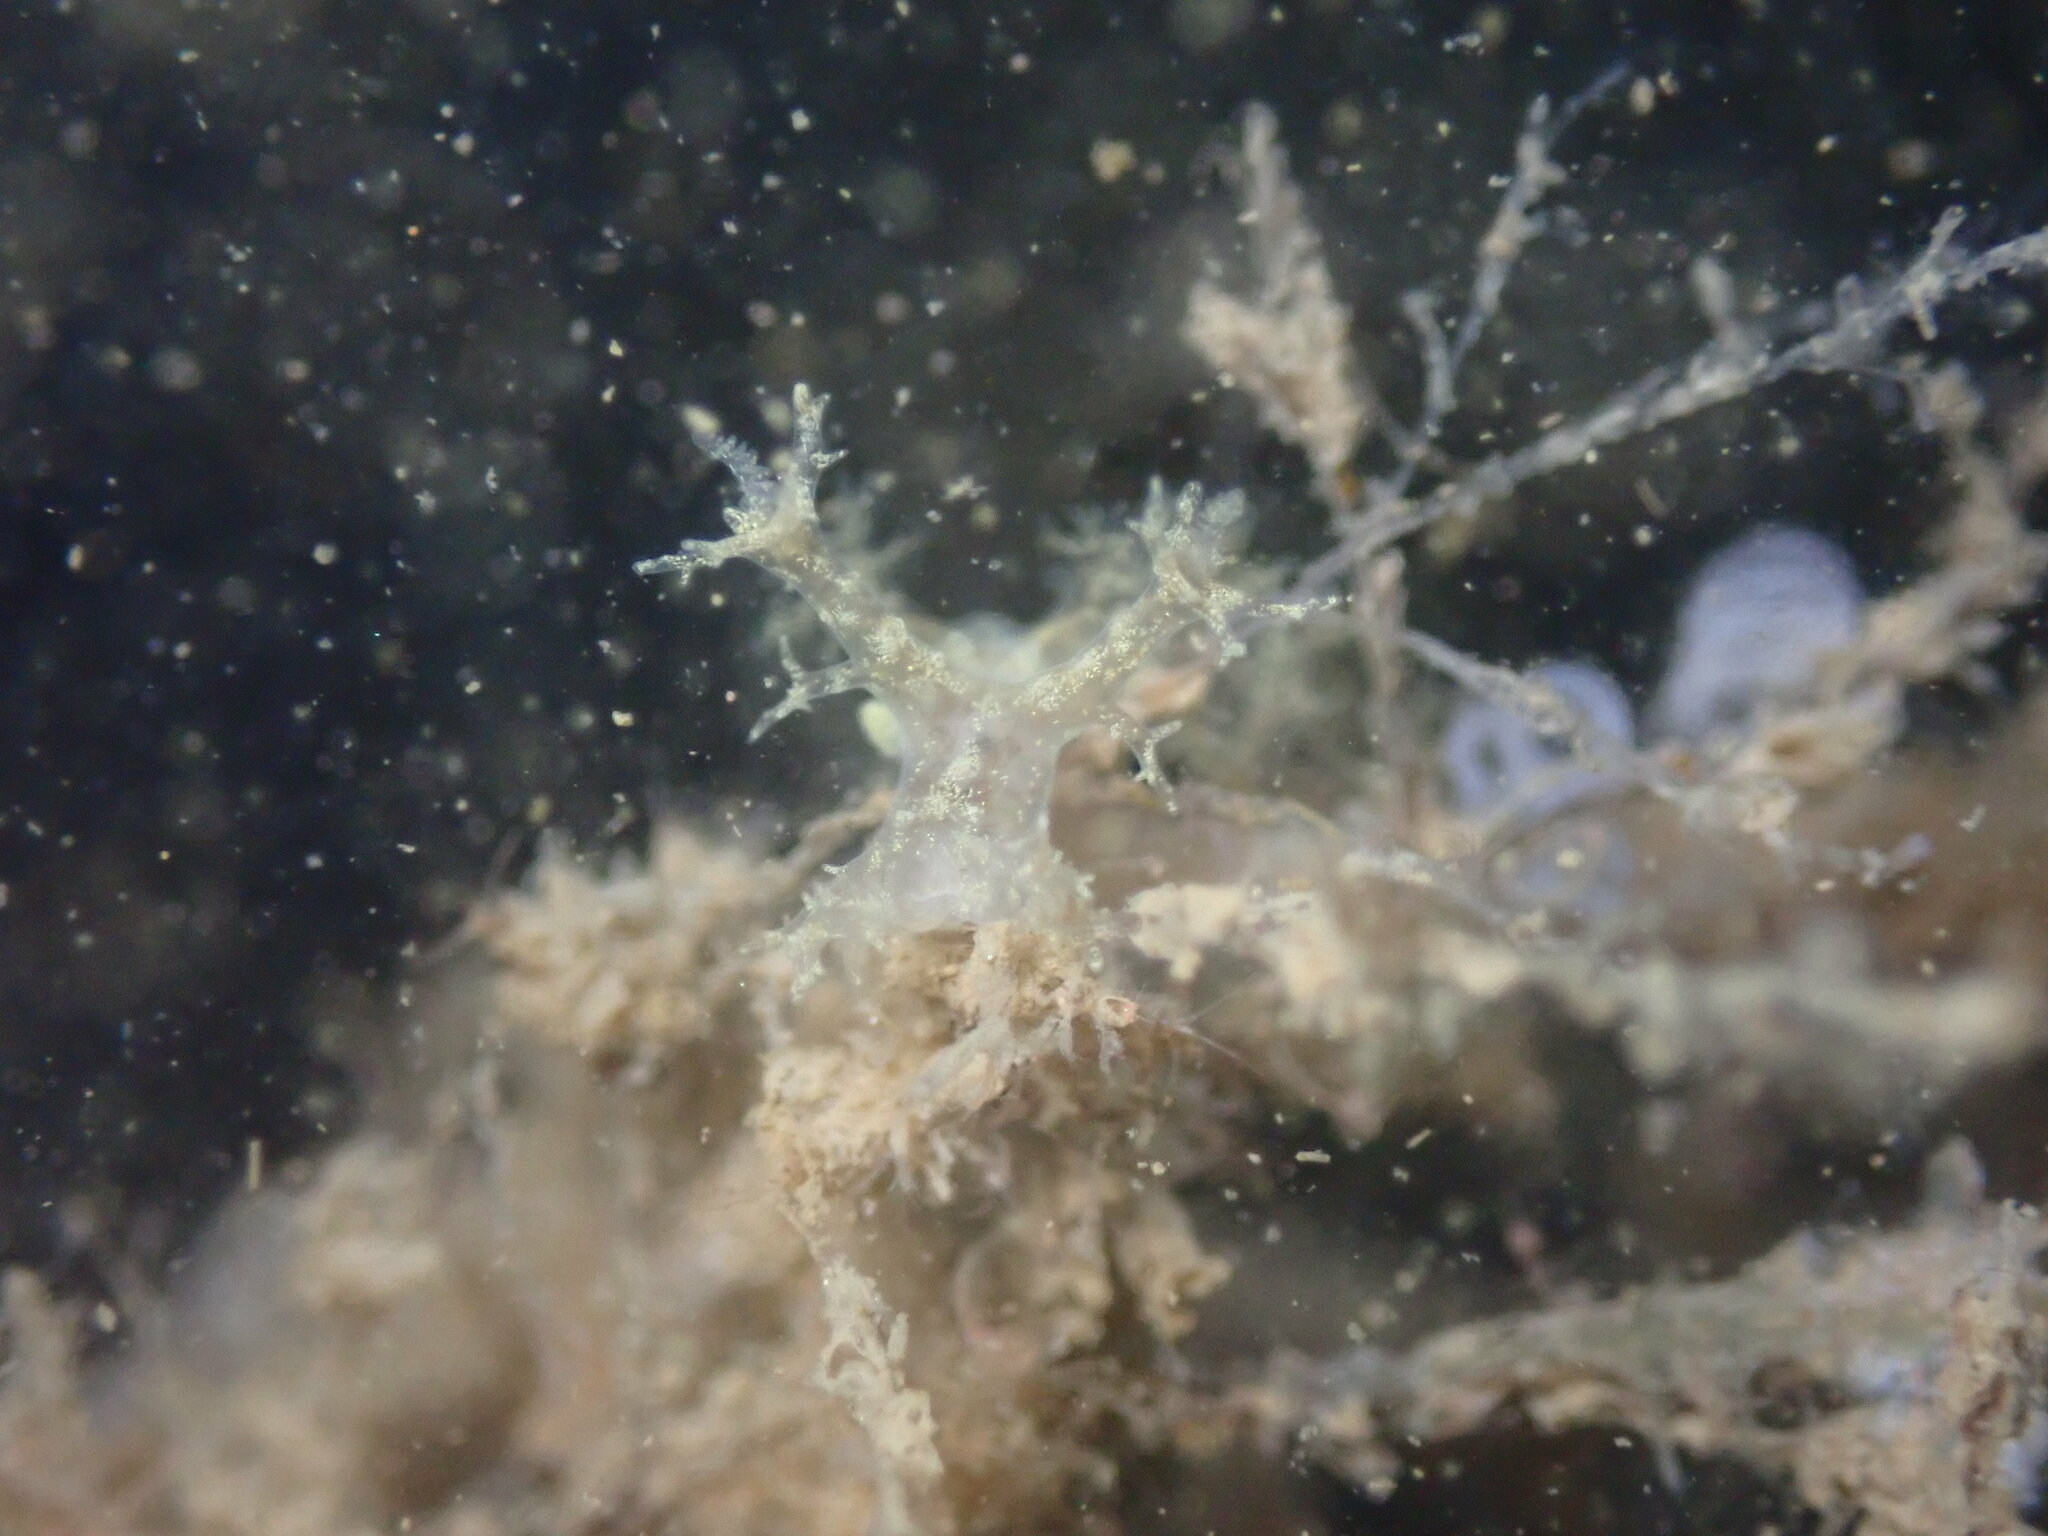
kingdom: Animalia
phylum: Mollusca
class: Gastropoda
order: Nudibranchia
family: Dendronotidae
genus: Dendronotus
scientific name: Dendronotus venustus
